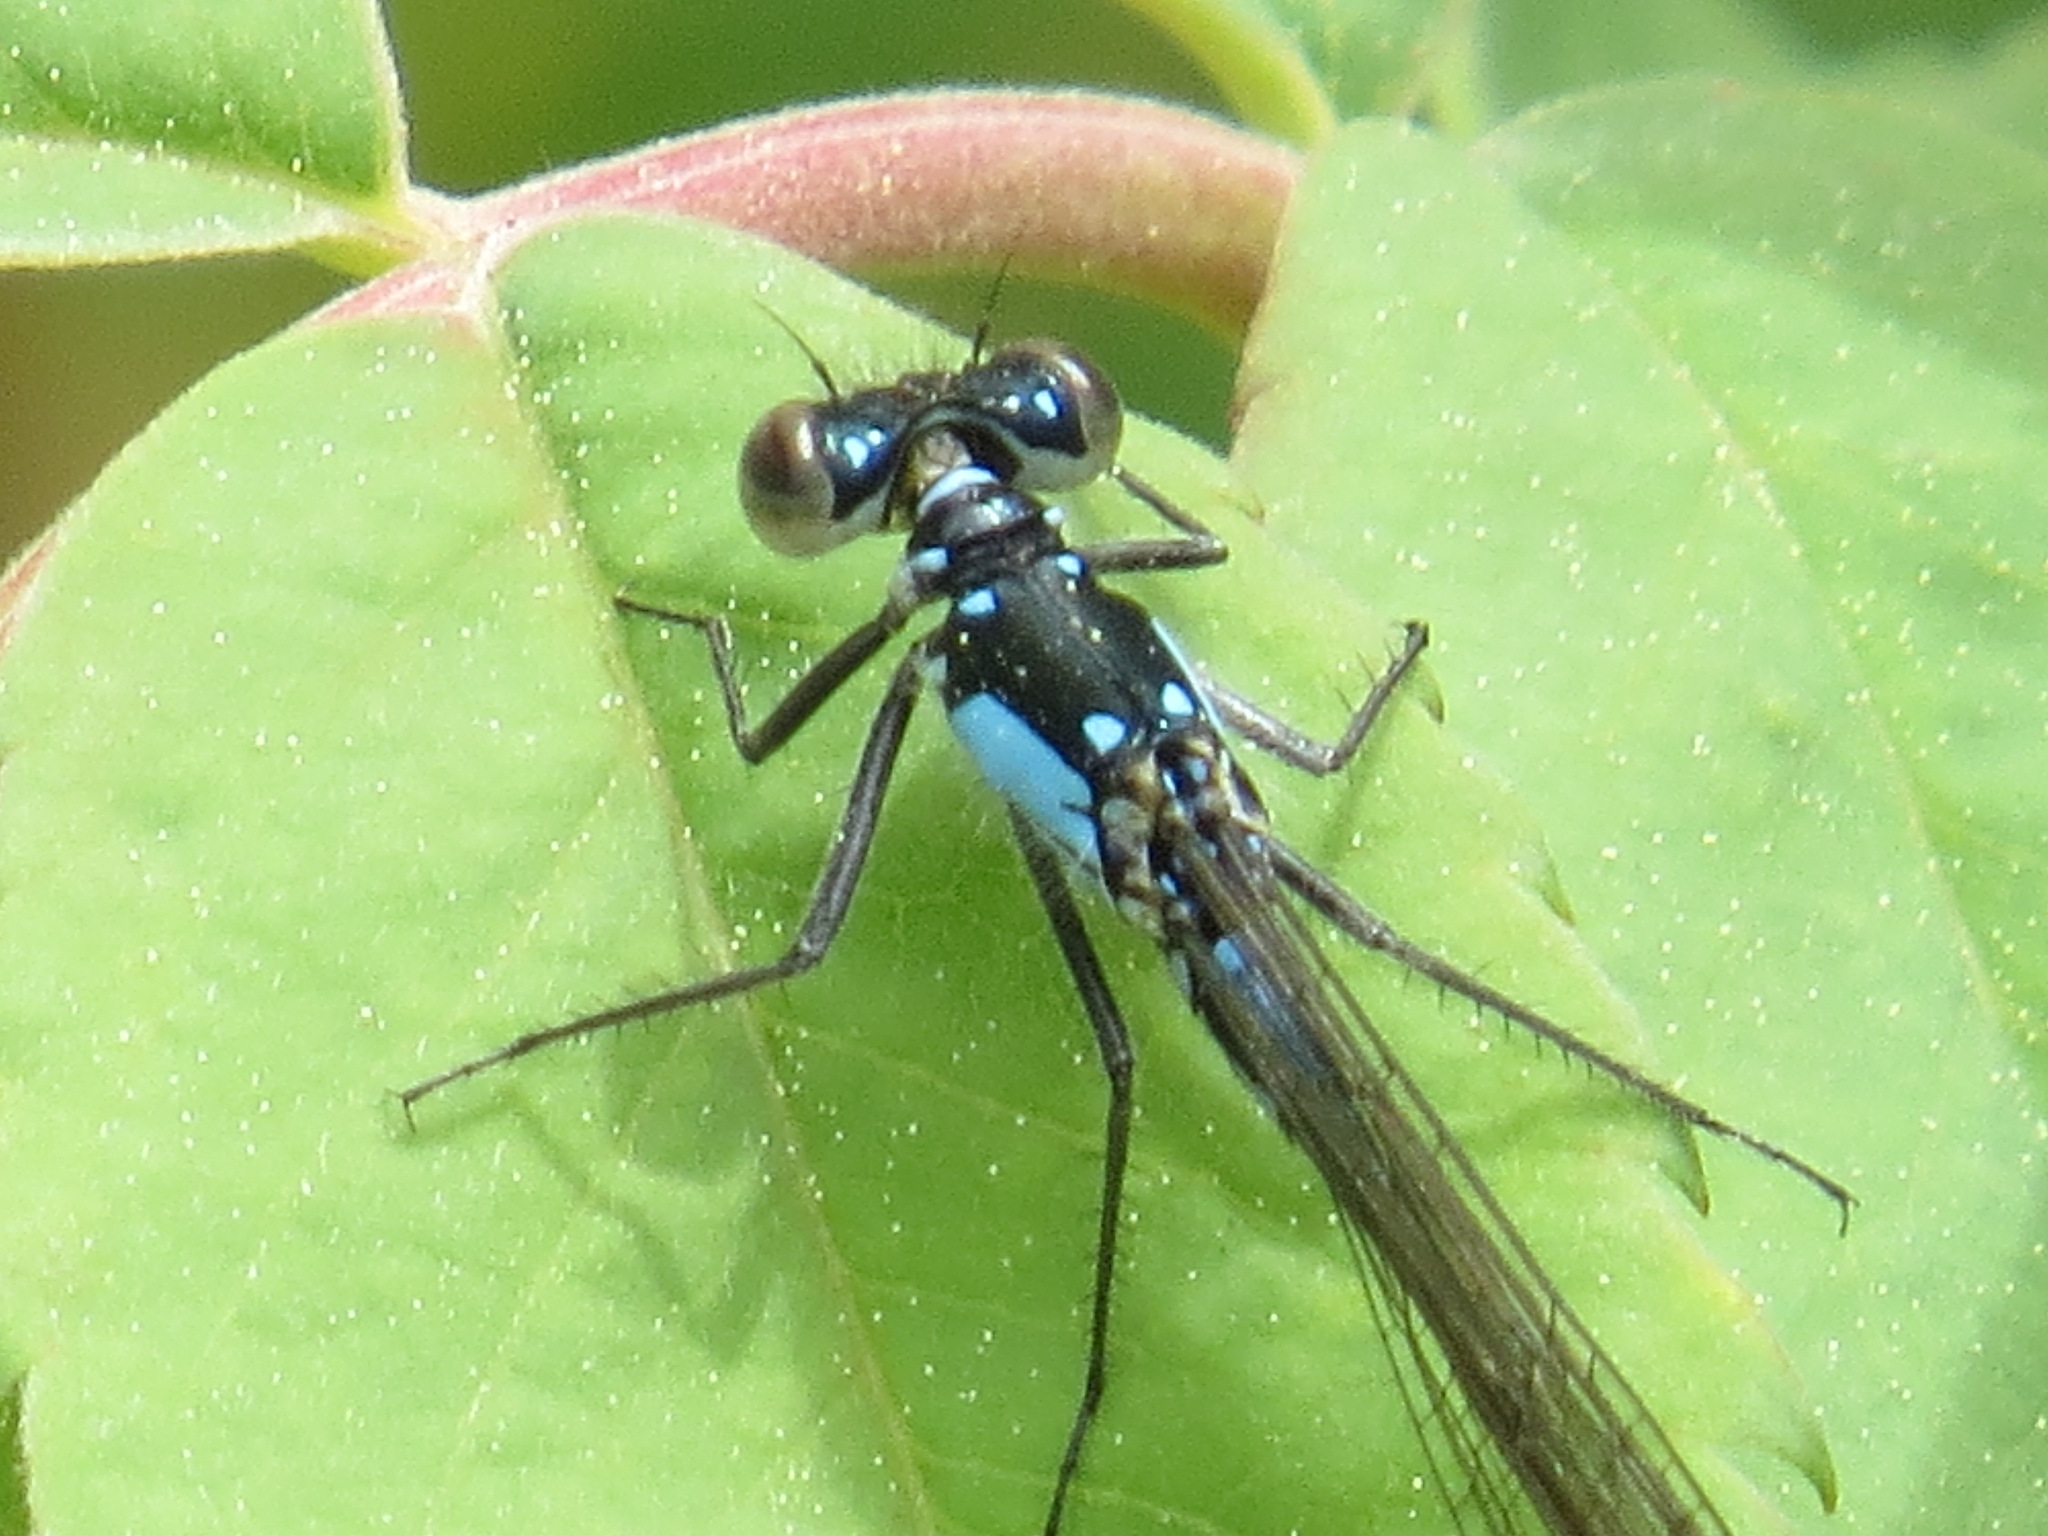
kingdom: Animalia
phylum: Arthropoda
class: Insecta
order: Odonata
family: Coenagrionidae
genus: Ischnura
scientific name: Ischnura cervula
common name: Pacific forktail
